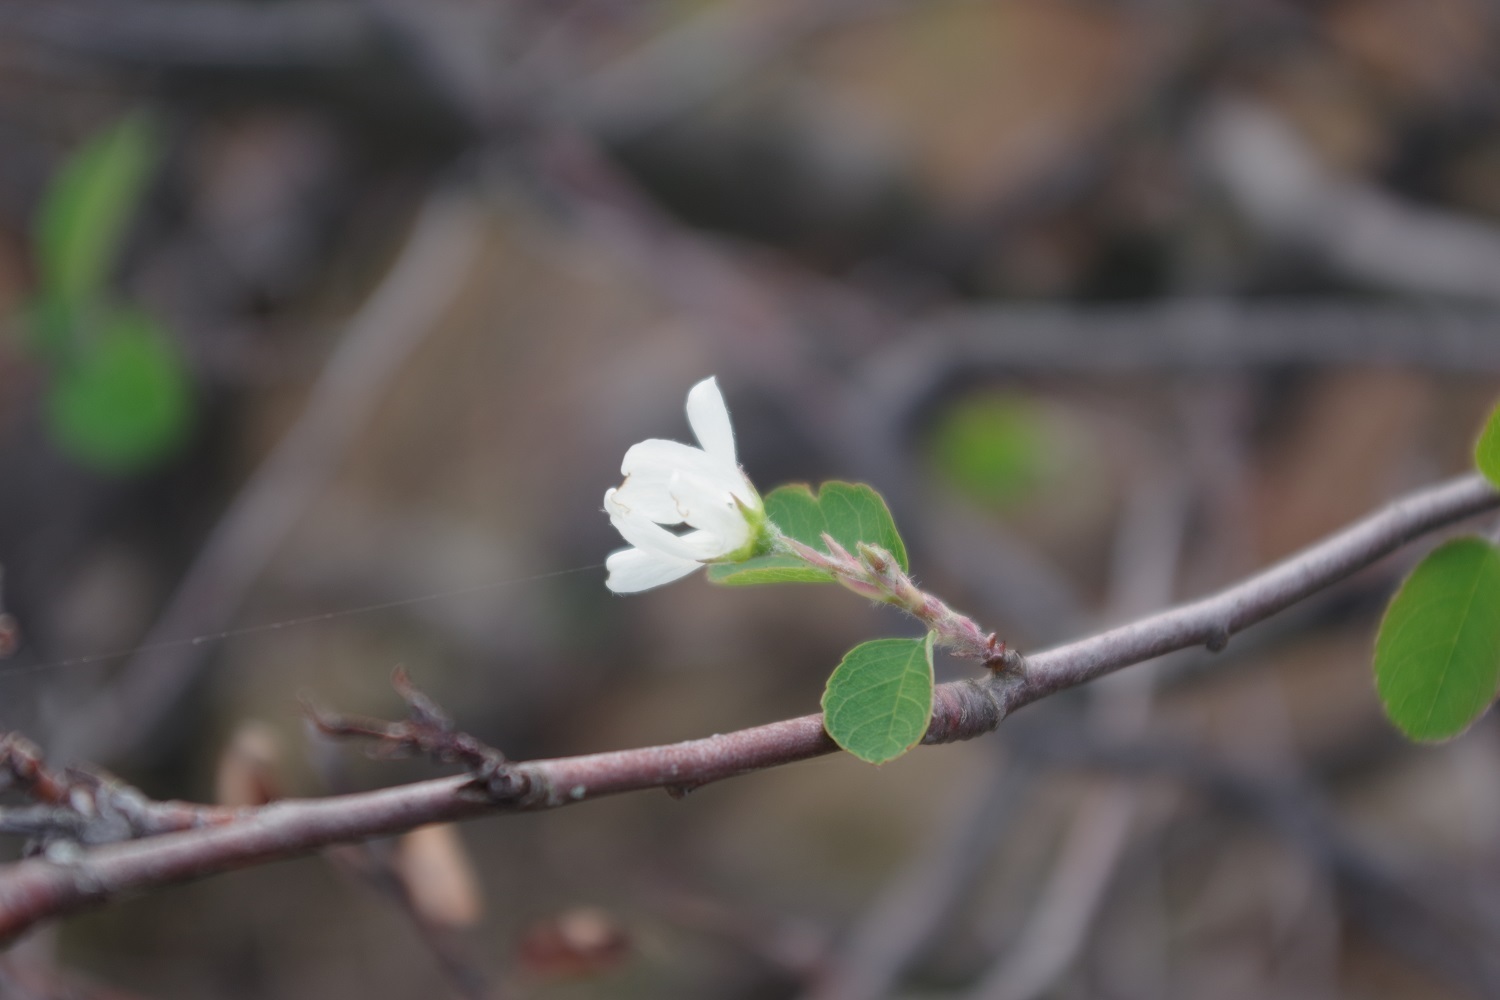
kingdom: Plantae
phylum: Tracheophyta
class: Magnoliopsida
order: Rosales
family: Rosaceae
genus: Amelanchier
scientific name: Amelanchier ovalis
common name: Serviceberry
